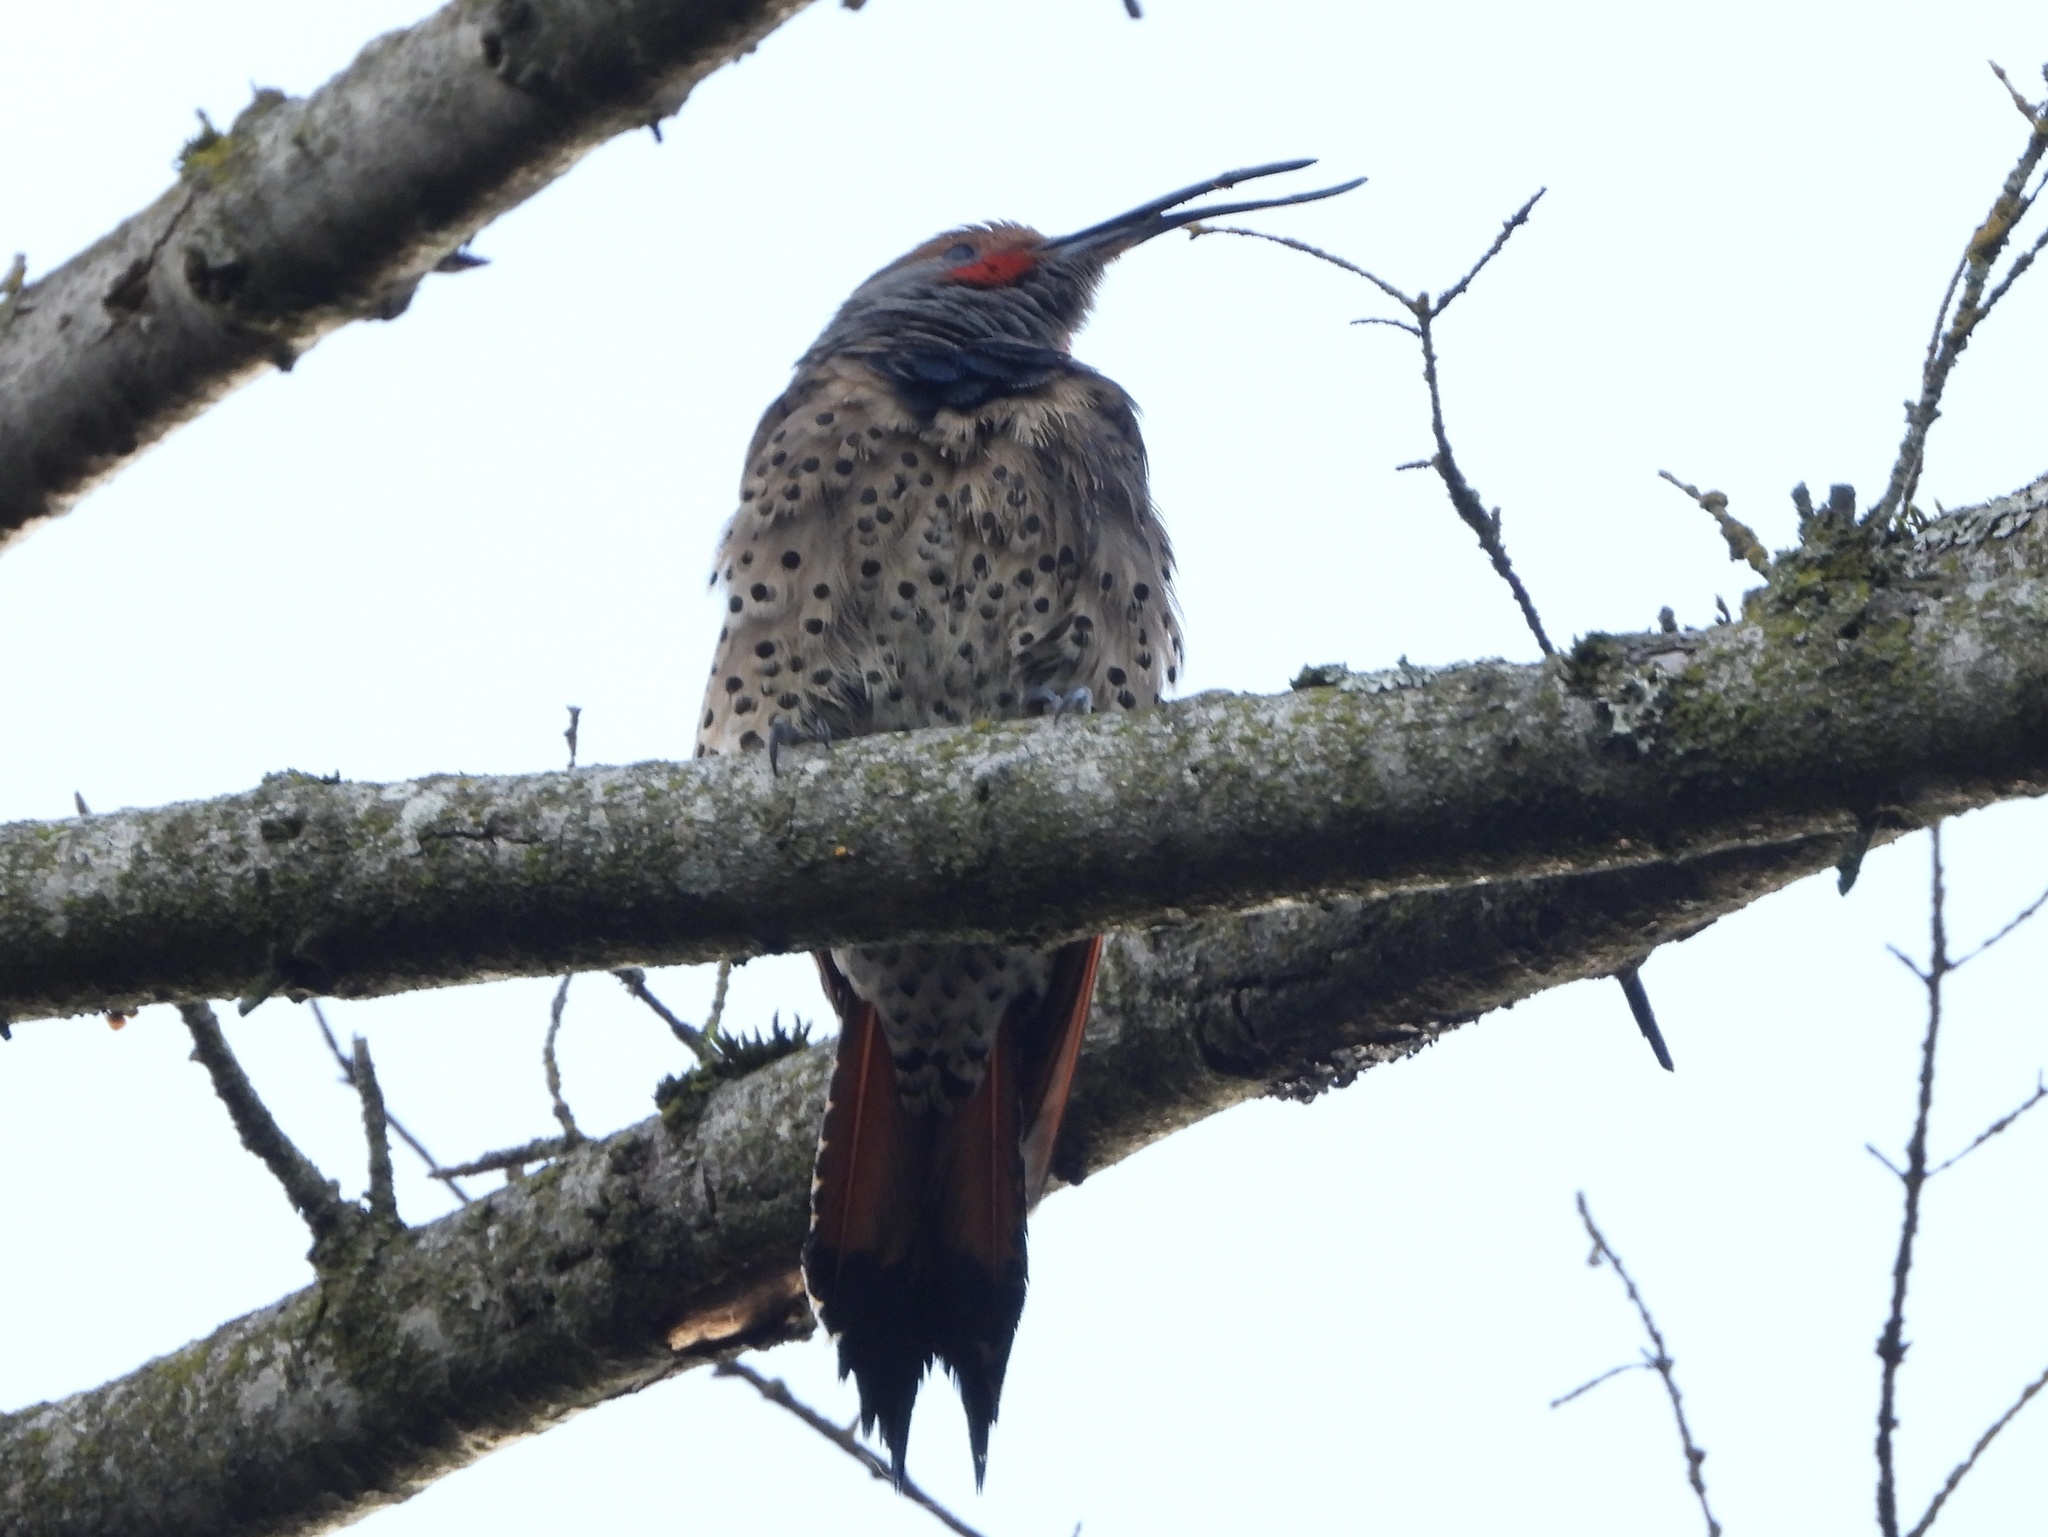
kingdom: Animalia
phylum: Chordata
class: Aves
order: Piciformes
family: Picidae
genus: Colaptes
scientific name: Colaptes auratus
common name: Northern flicker
